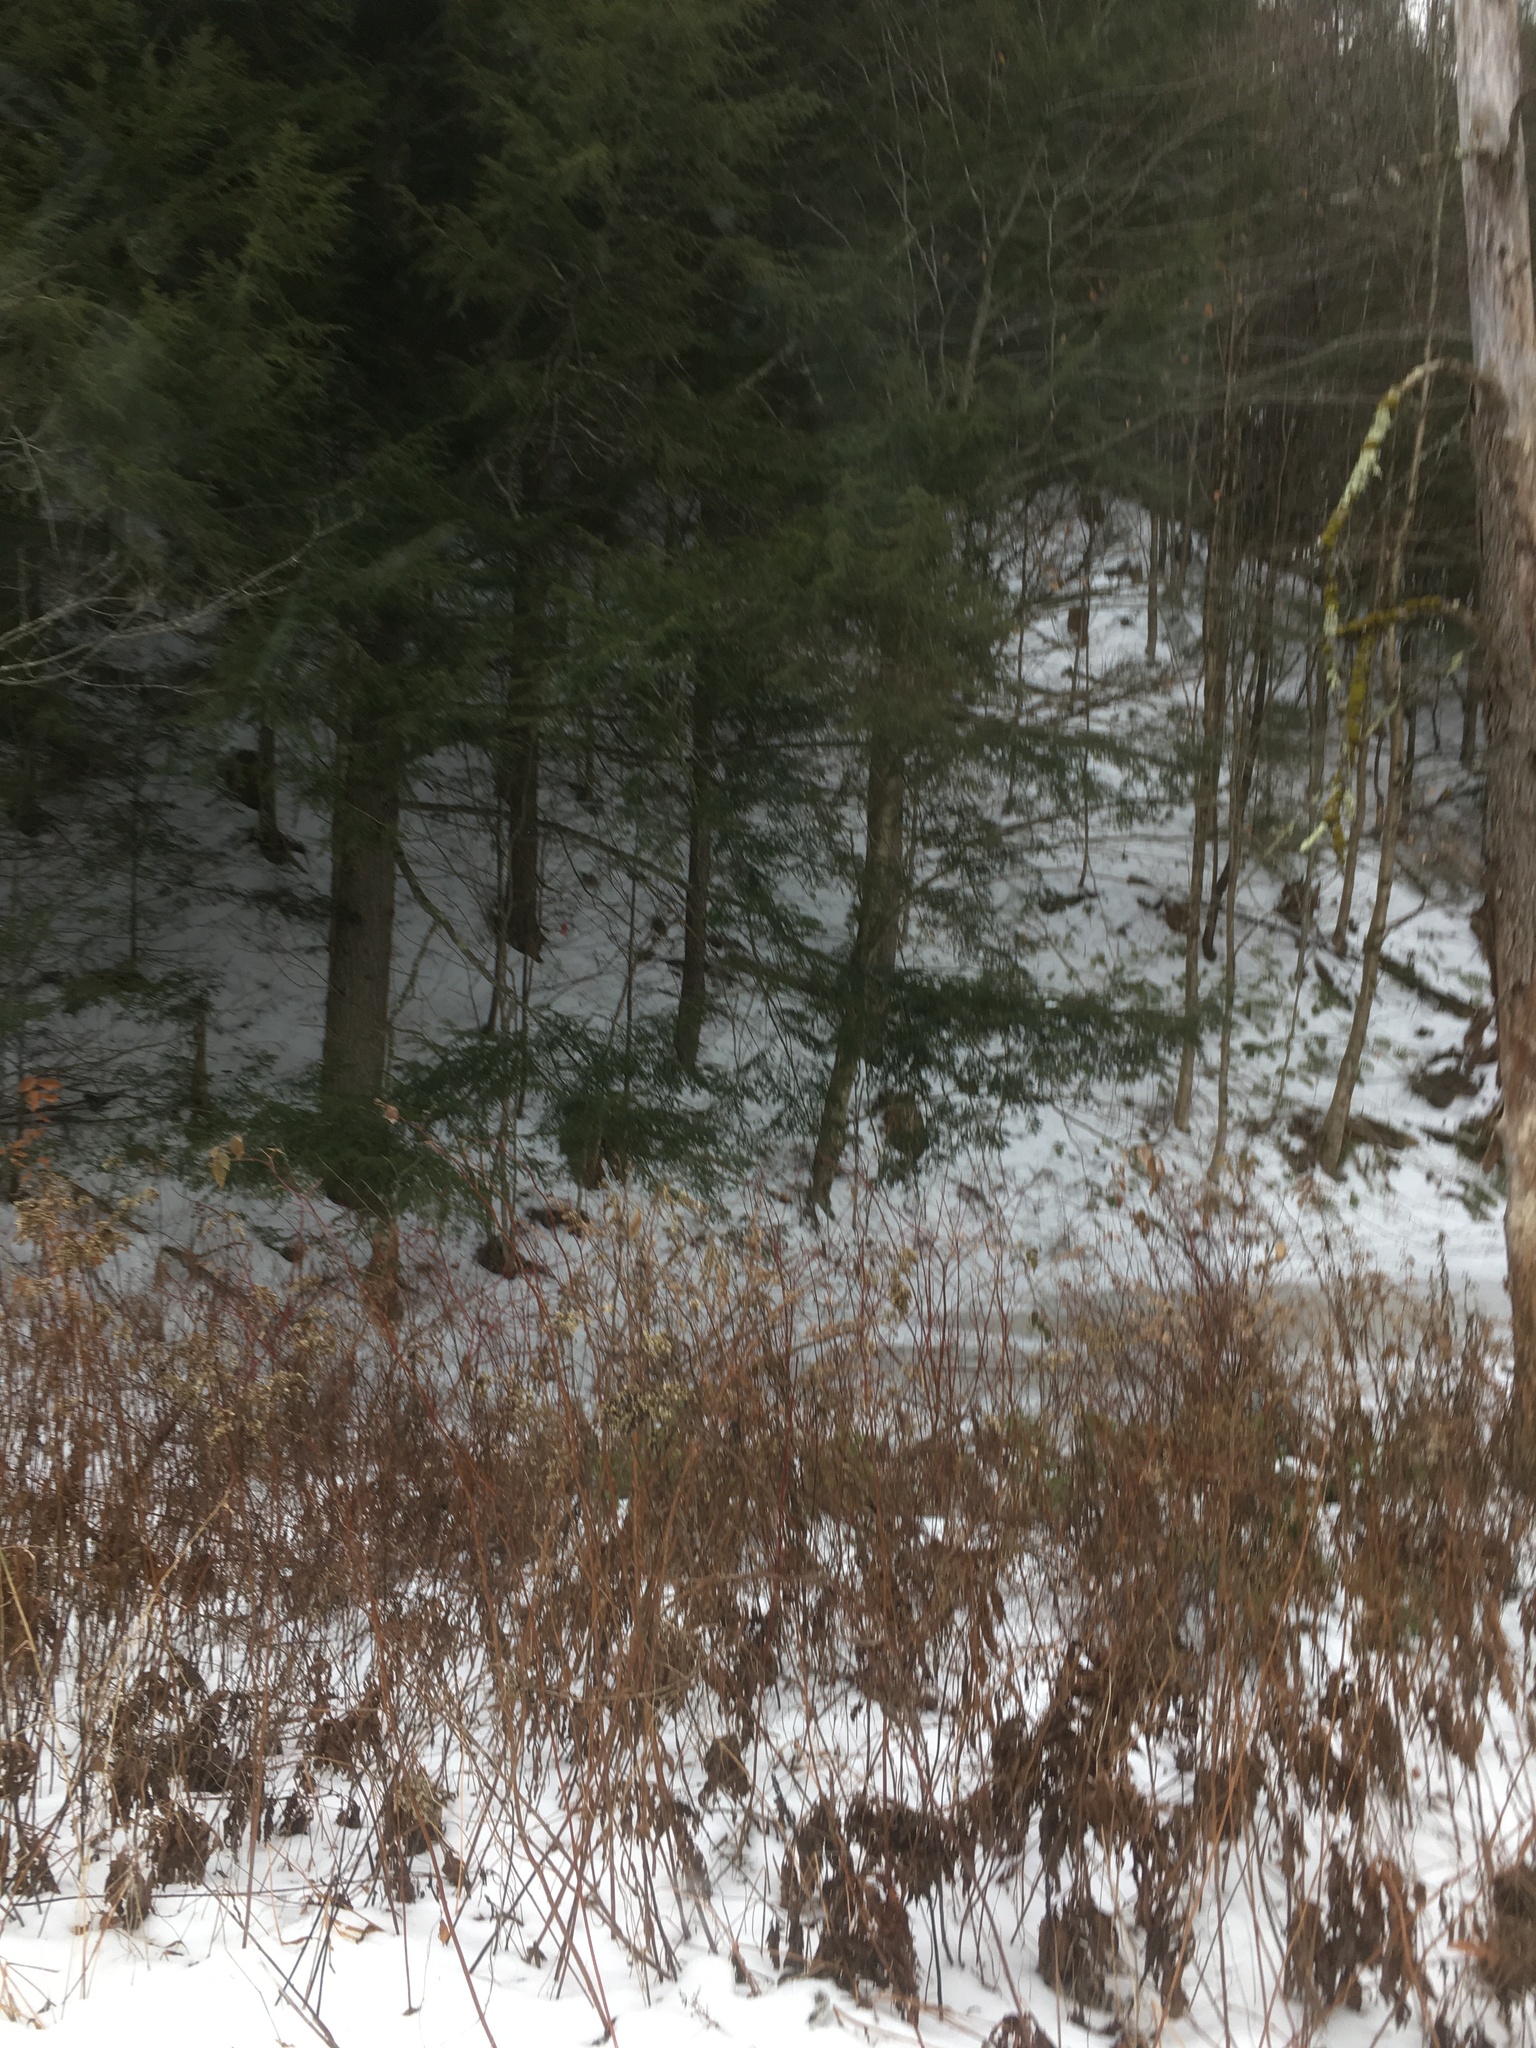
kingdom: Plantae
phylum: Tracheophyta
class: Pinopsida
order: Pinales
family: Pinaceae
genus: Tsuga
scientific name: Tsuga canadensis
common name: Eastern hemlock
